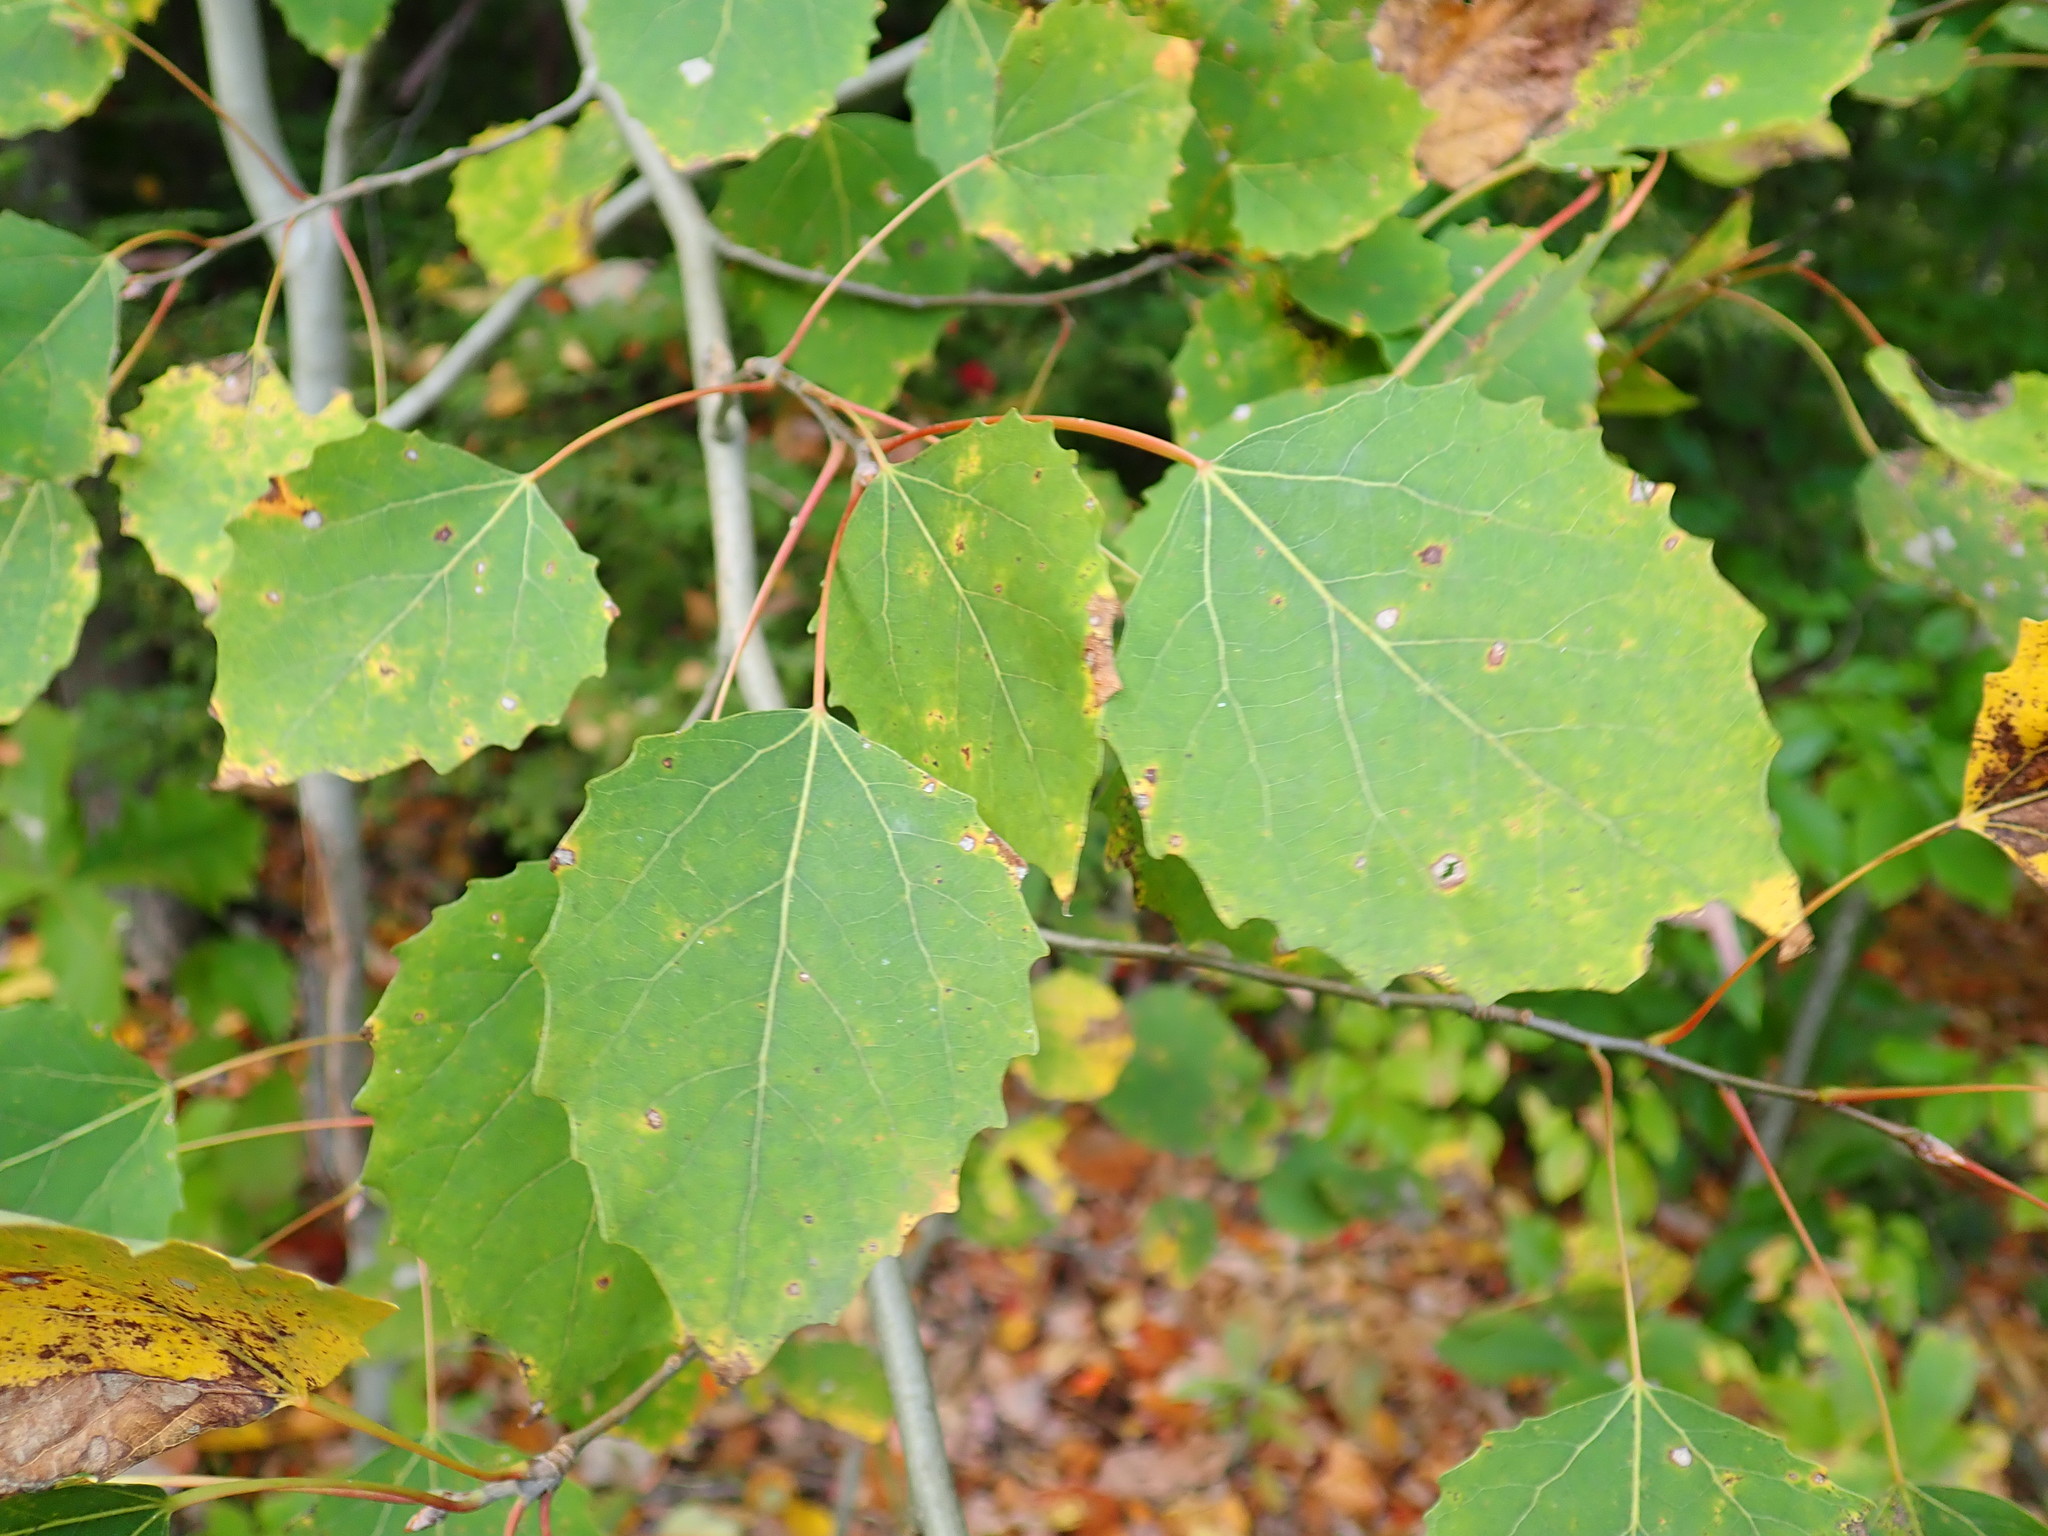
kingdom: Plantae
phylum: Tracheophyta
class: Magnoliopsida
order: Malpighiales
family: Salicaceae
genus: Populus
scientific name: Populus grandidentata
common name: Bigtooth aspen
